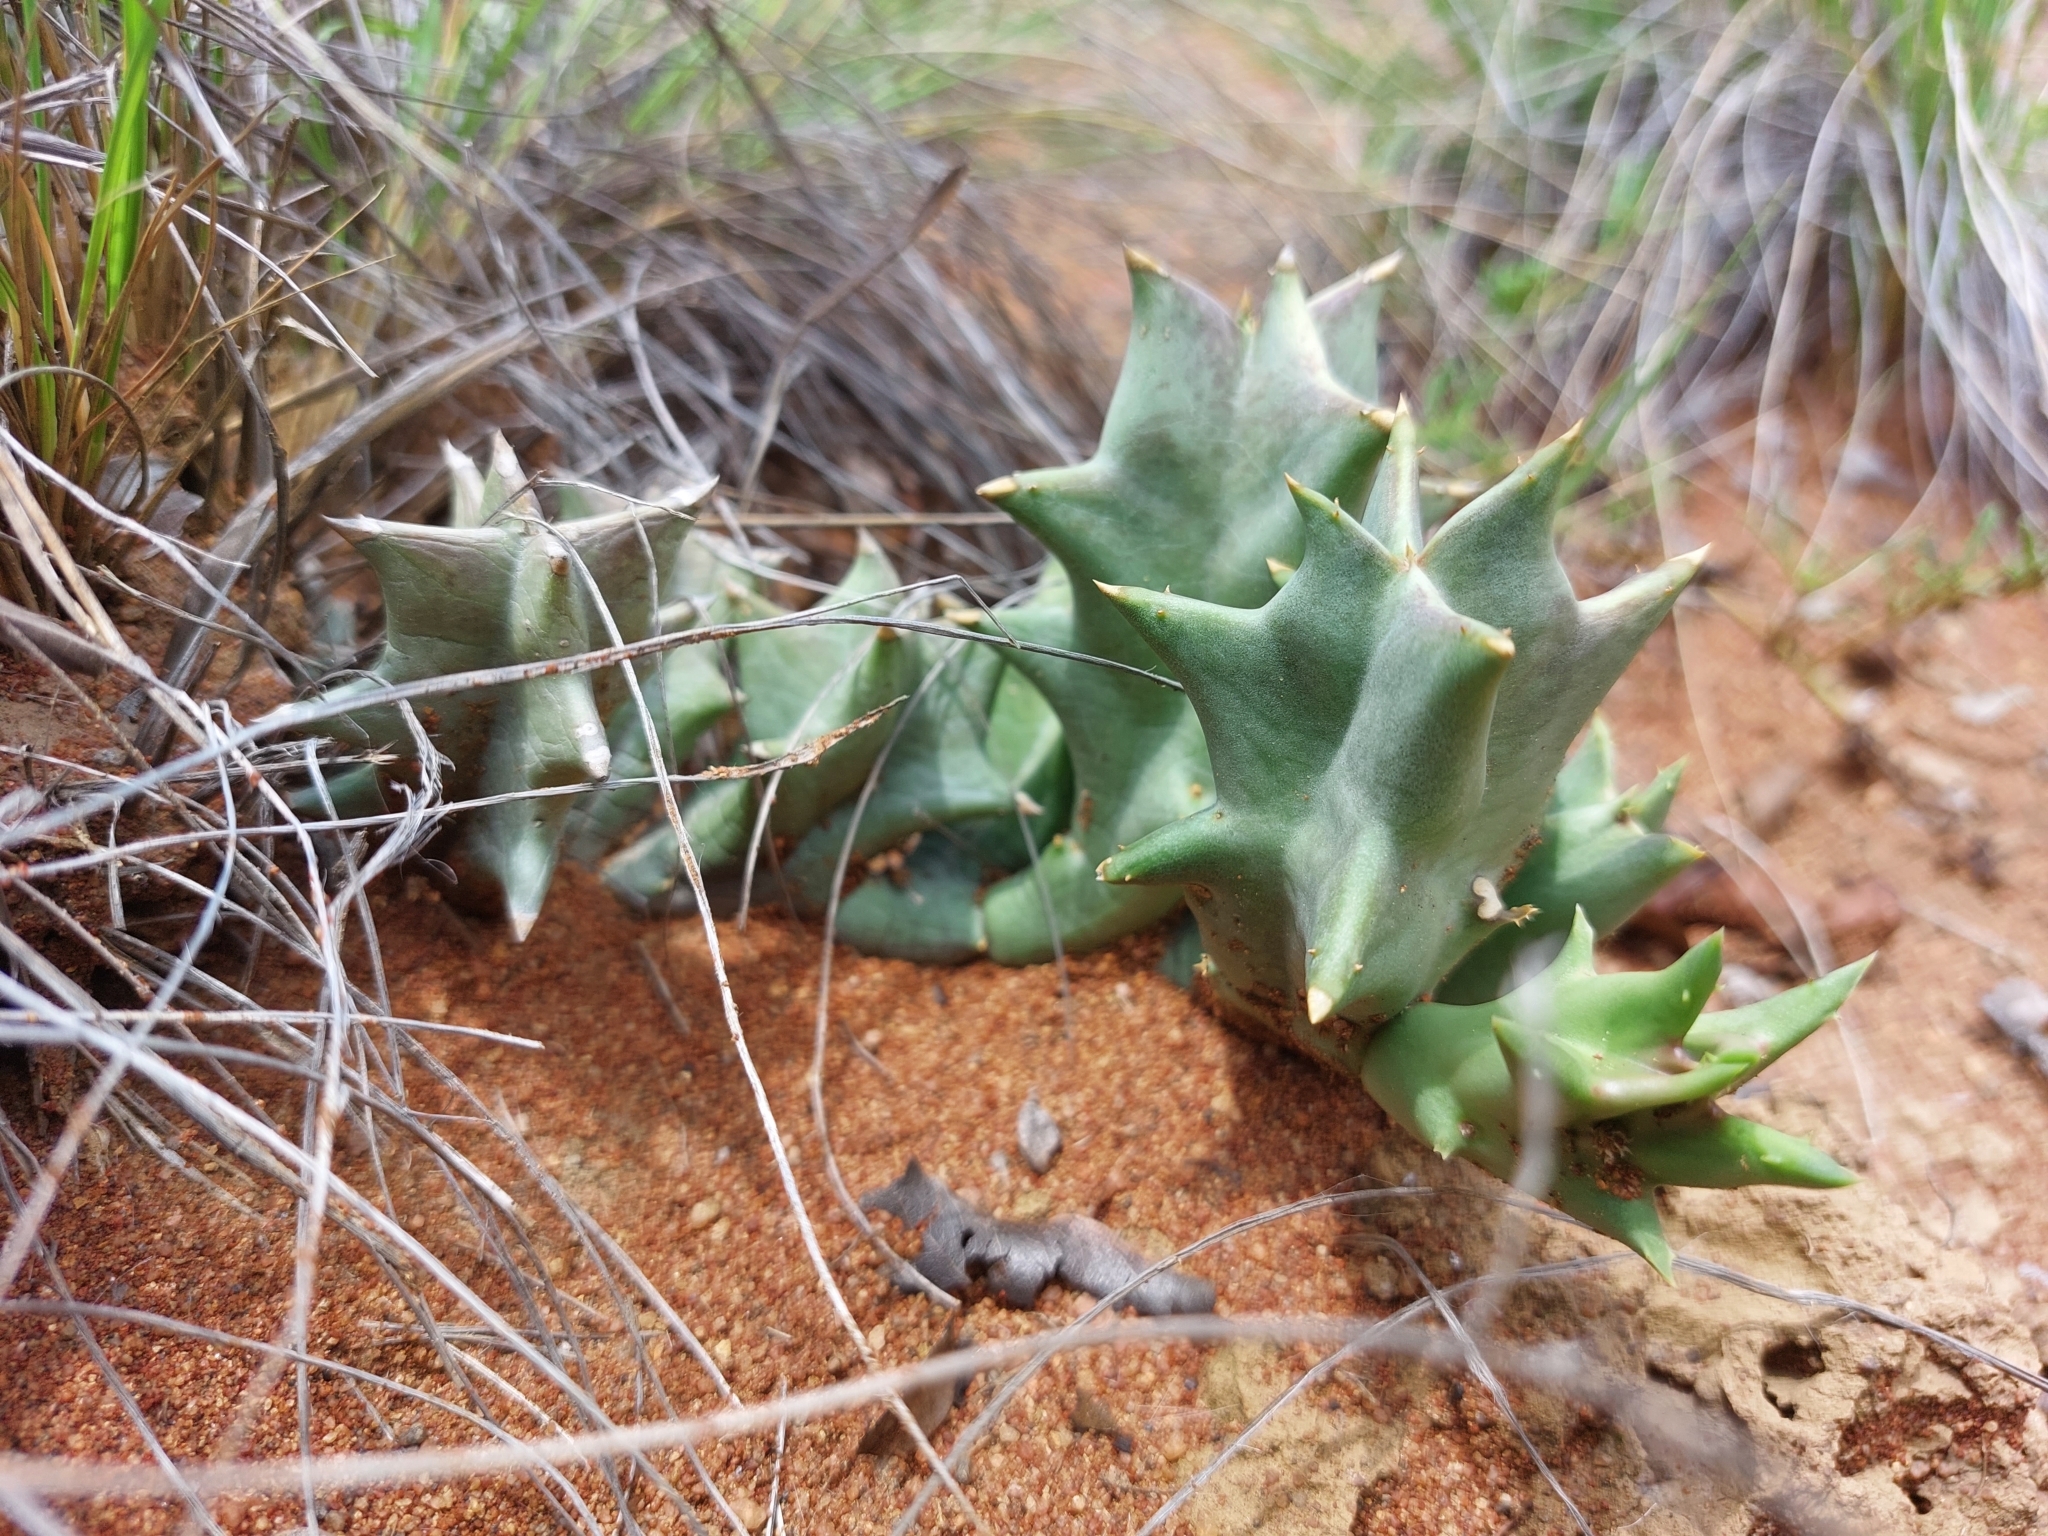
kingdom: Plantae
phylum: Tracheophyta
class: Magnoliopsida
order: Gentianales
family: Apocynaceae
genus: Ceropegia
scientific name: Ceropegia melanantha
